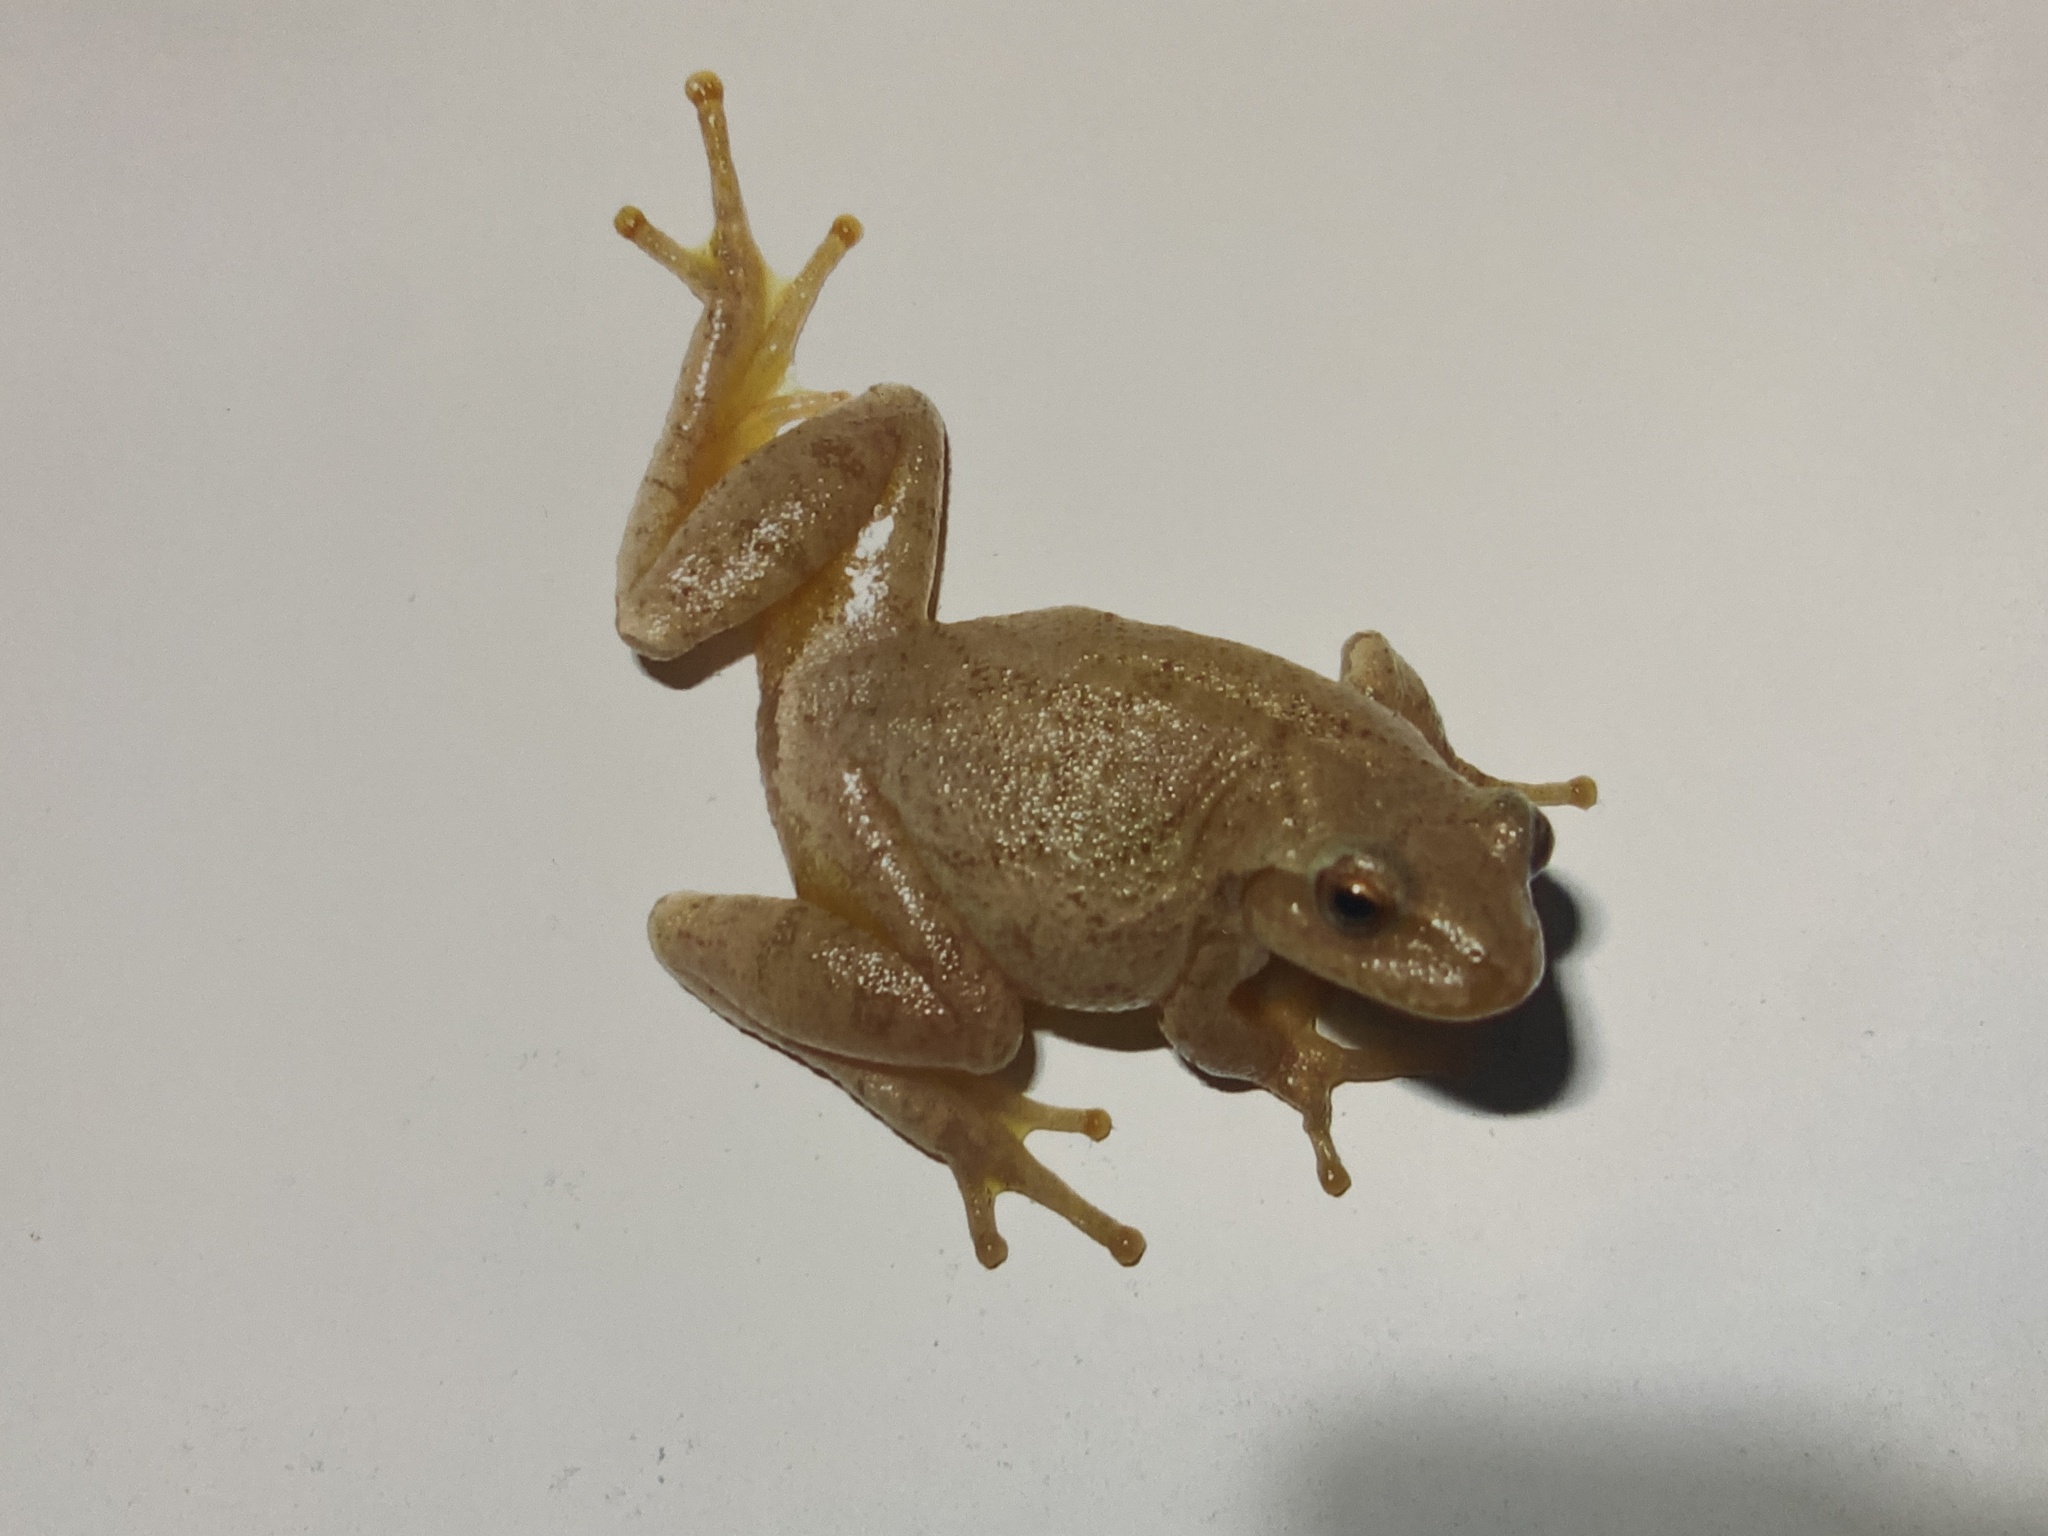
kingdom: Animalia
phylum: Chordata
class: Amphibia
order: Anura
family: Hylidae
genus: Pseudacris
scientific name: Pseudacris crucifer
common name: Spring peeper
